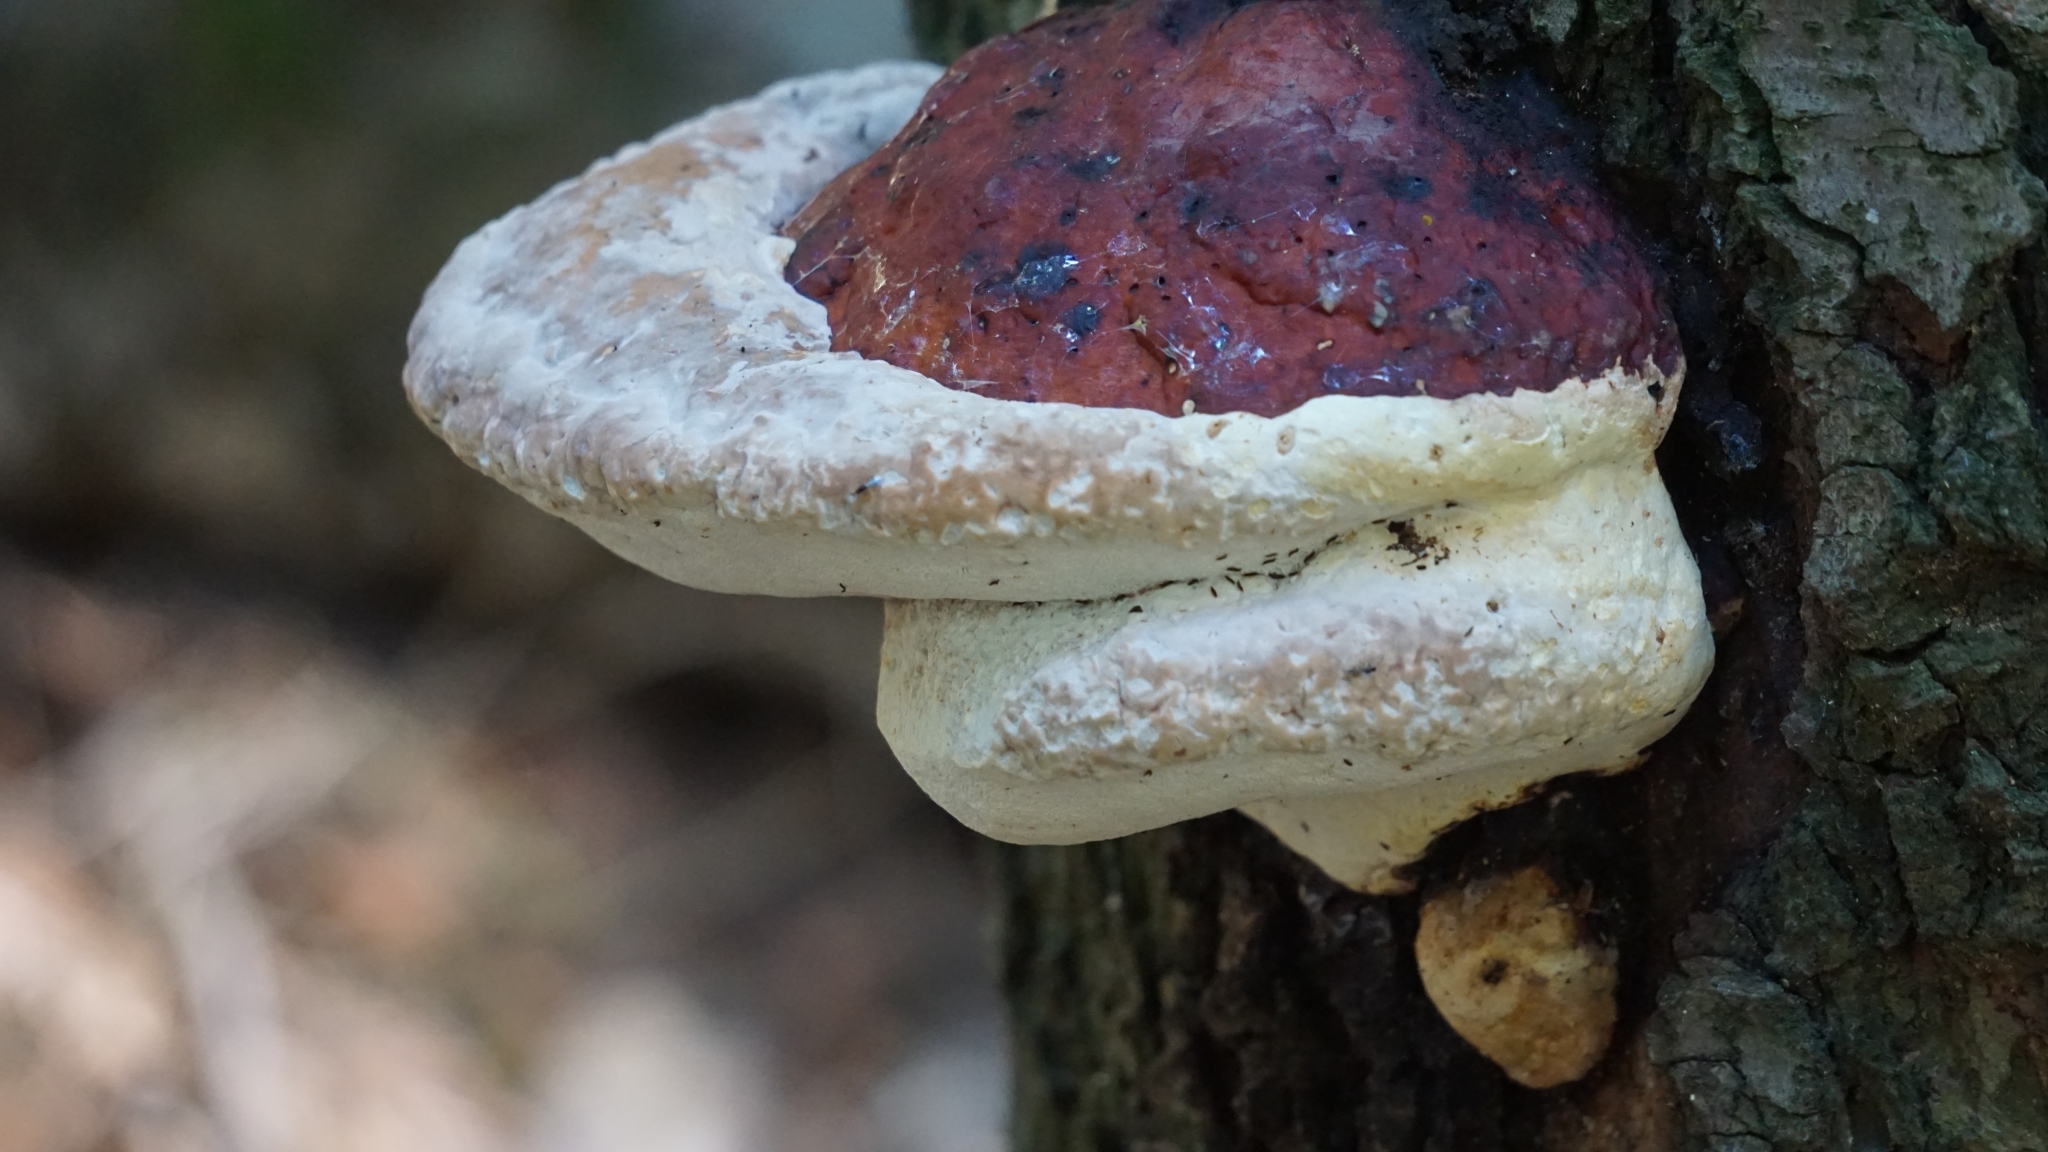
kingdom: Fungi
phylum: Basidiomycota
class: Agaricomycetes
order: Polyporales
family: Fomitopsidaceae
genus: Fomitopsis
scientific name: Fomitopsis pinicola
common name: Red-belted bracket
